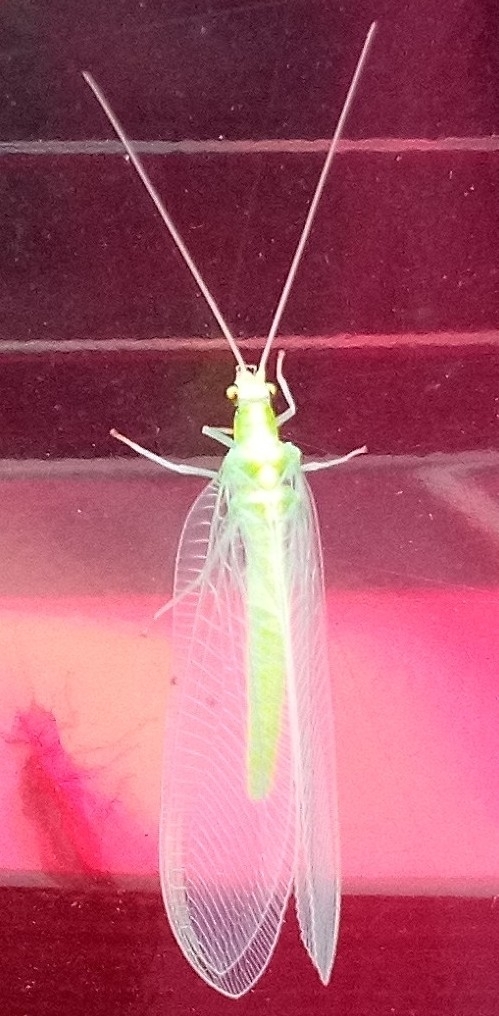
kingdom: Animalia
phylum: Arthropoda
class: Insecta
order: Neuroptera
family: Chrysopidae
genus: Chrysoperla
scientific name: Chrysoperla
